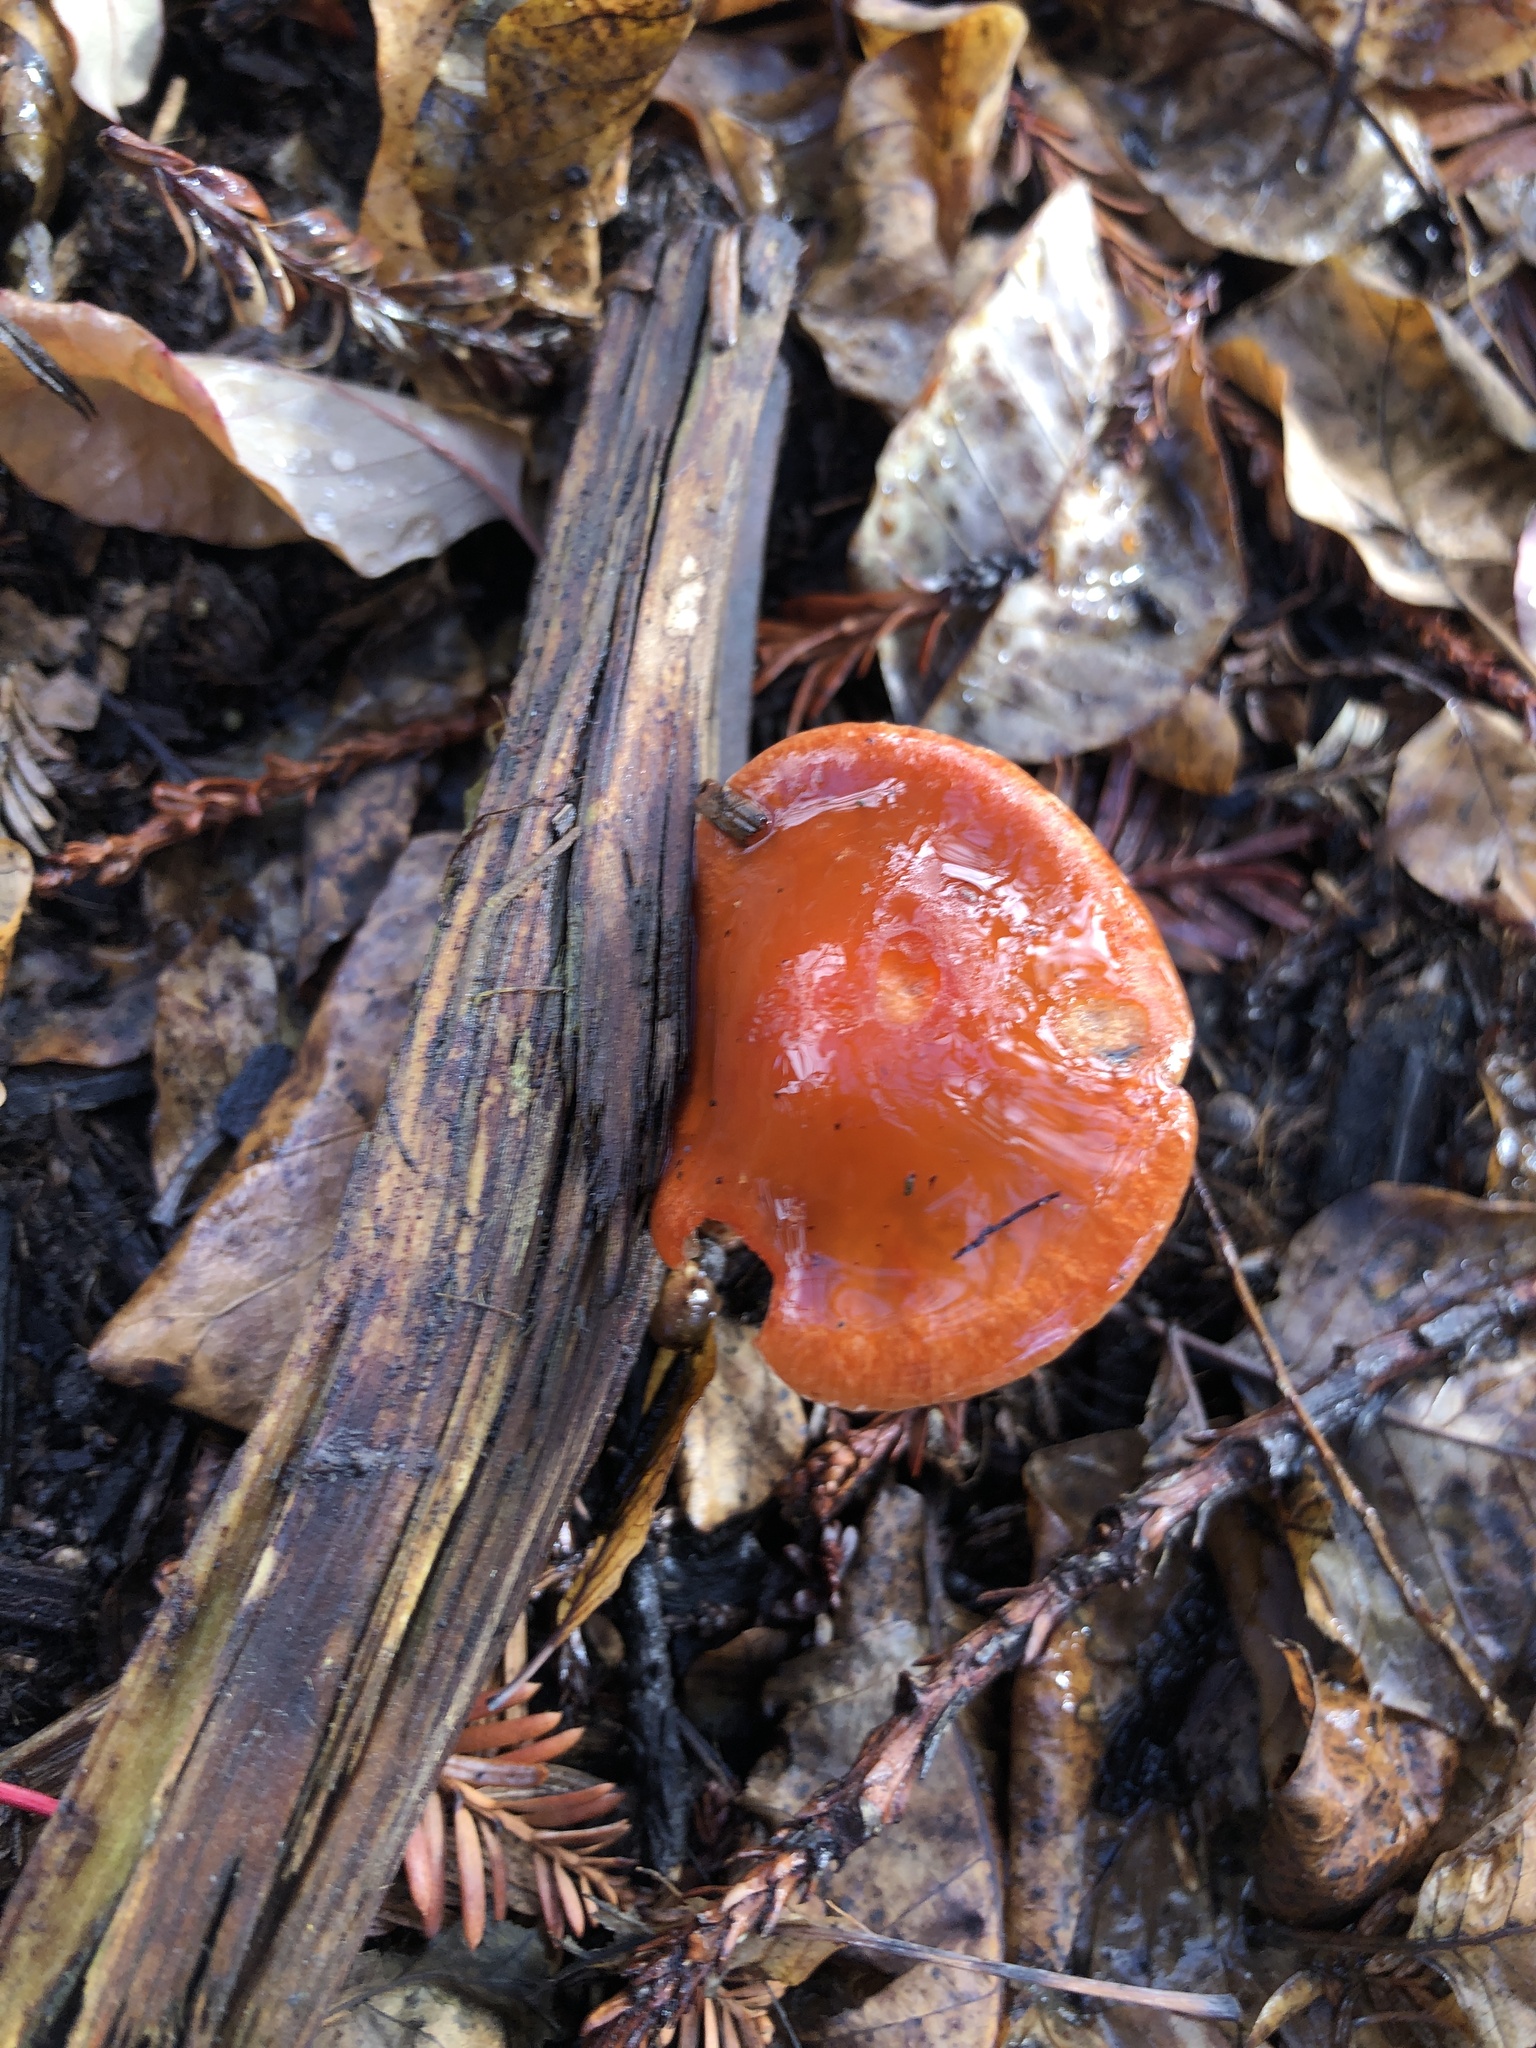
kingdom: Fungi
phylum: Basidiomycota
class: Agaricomycetes
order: Agaricales
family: Strophariaceae
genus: Leratiomyces
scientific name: Leratiomyces ceres
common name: Redlead roundhead
